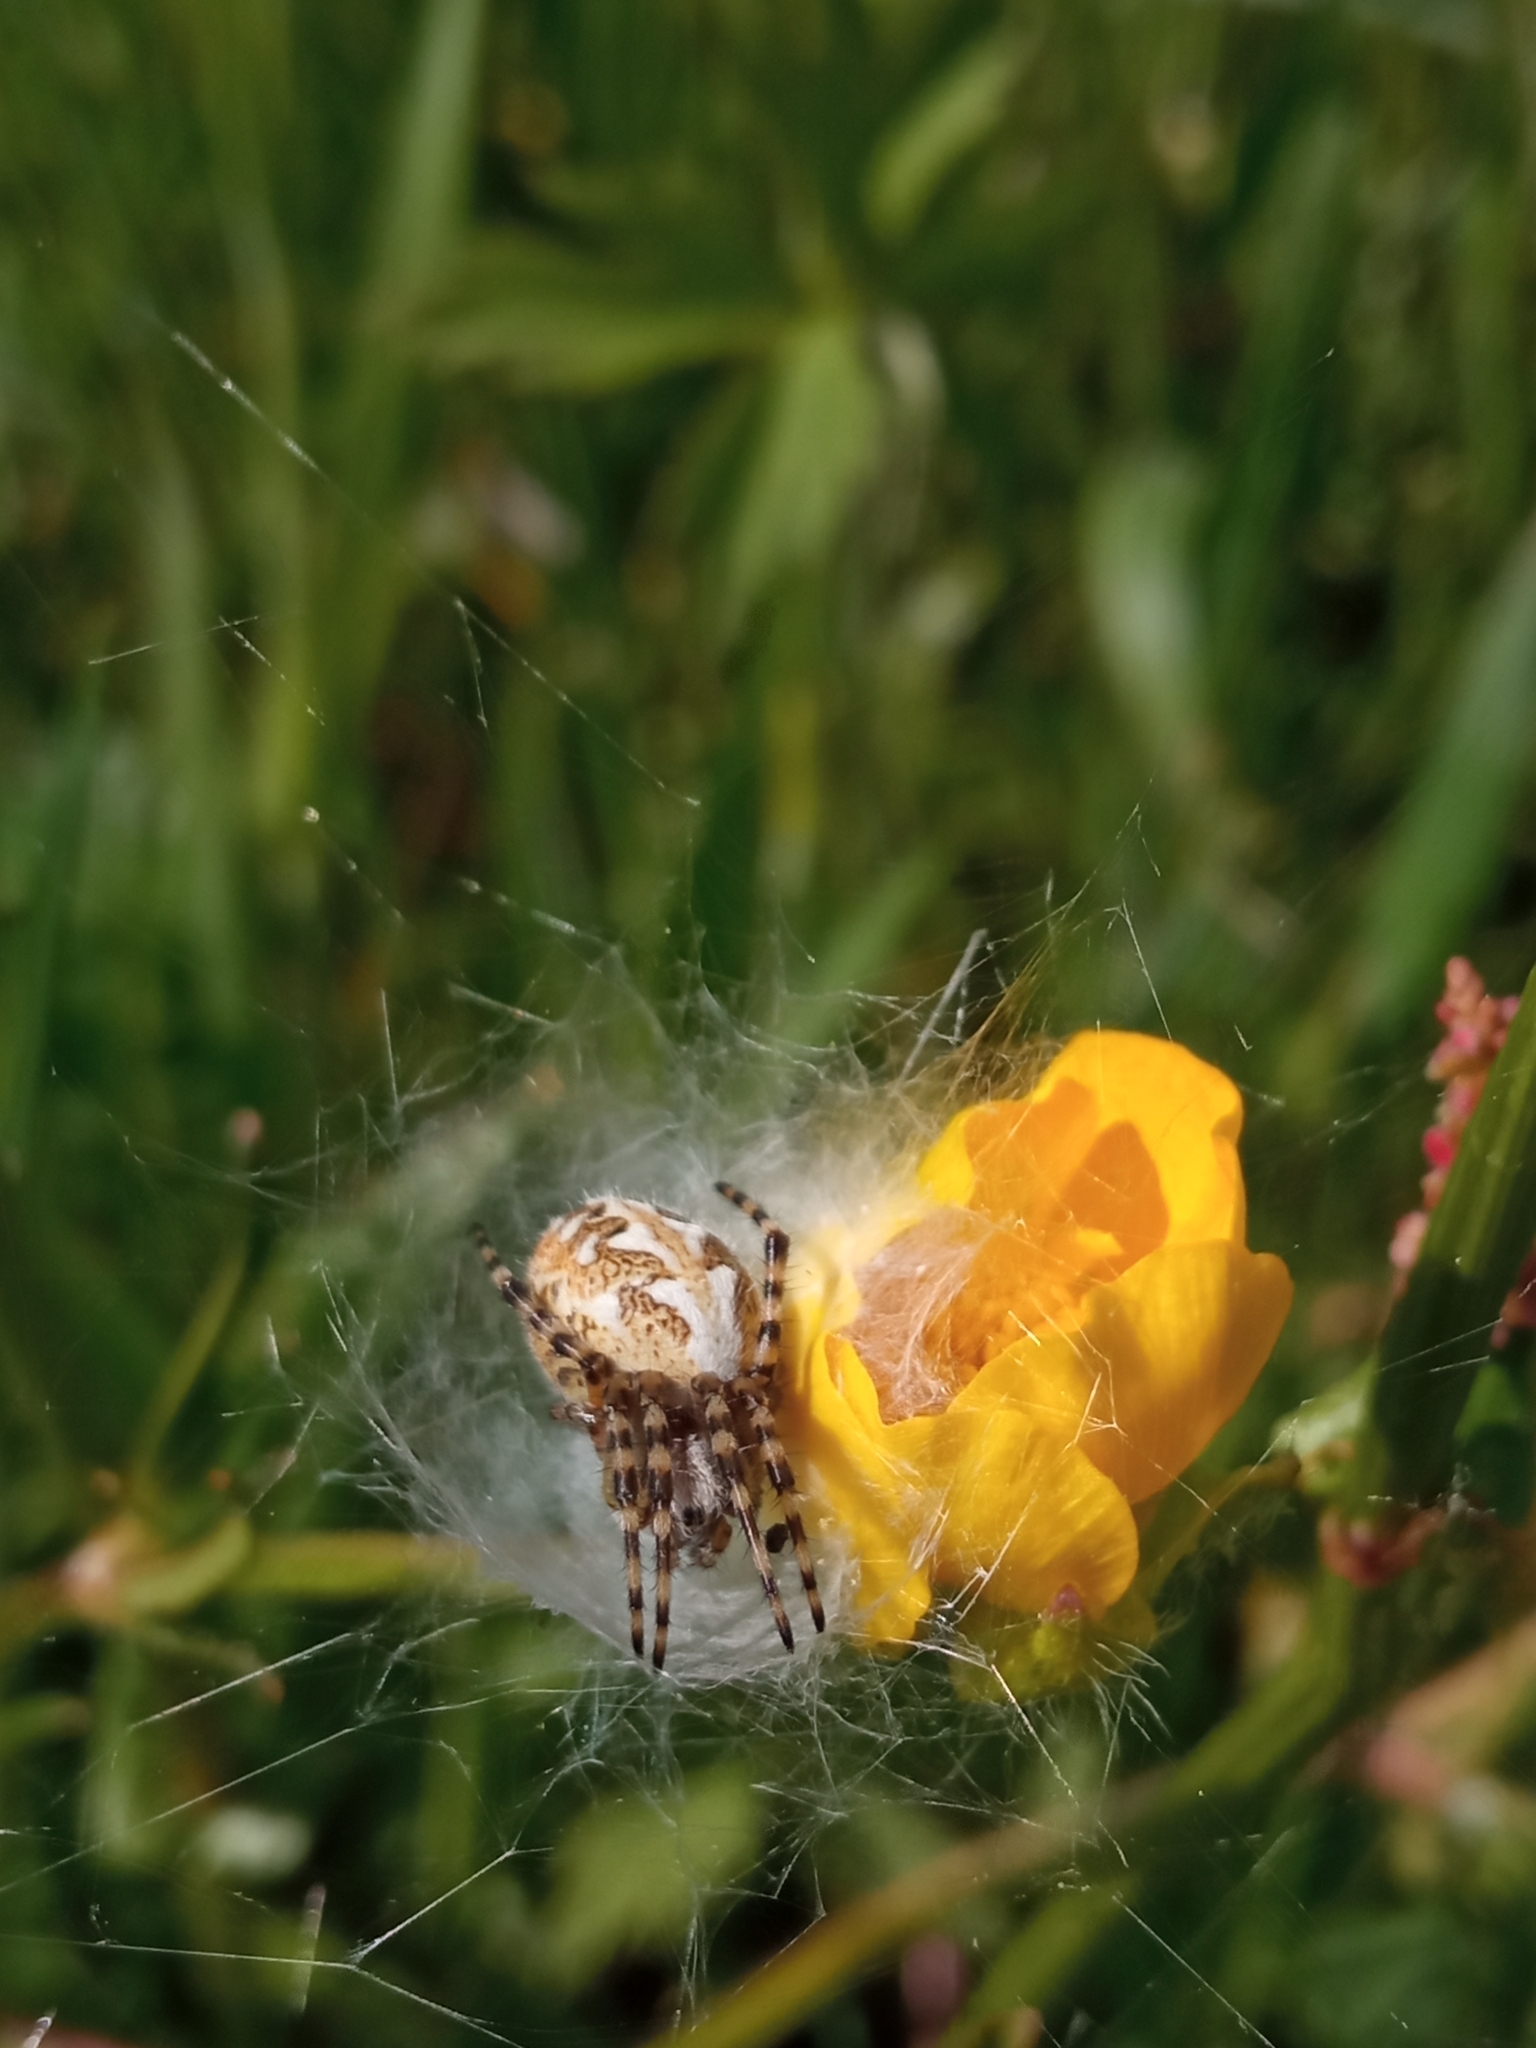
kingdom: Animalia
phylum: Arthropoda
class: Arachnida
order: Araneae
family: Araneidae
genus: Aculepeira
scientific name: Aculepeira ceropegia
